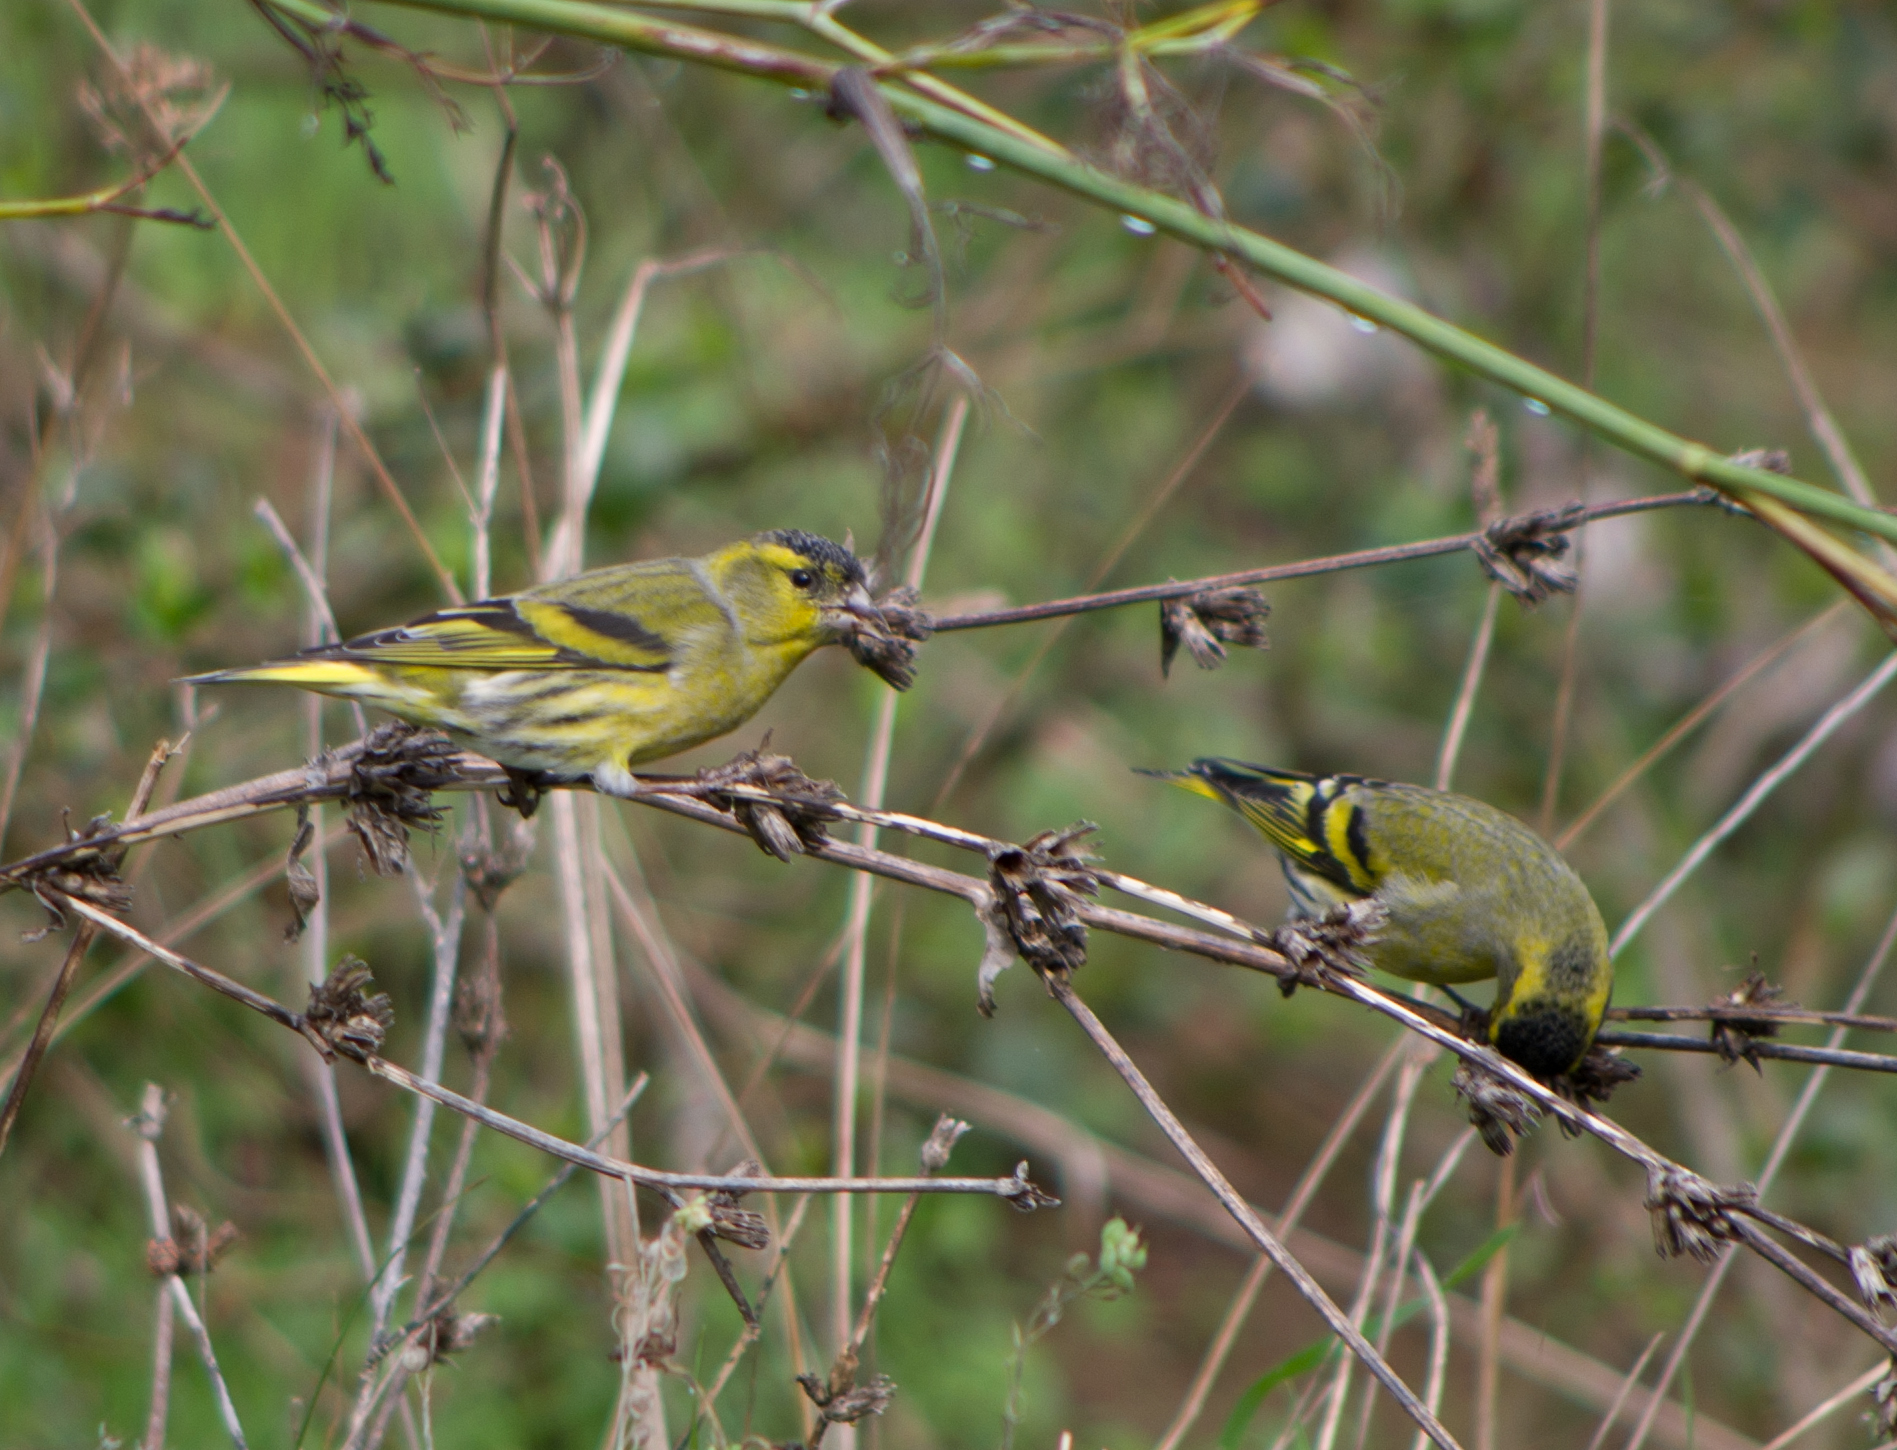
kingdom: Animalia
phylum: Chordata
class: Aves
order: Passeriformes
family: Fringillidae
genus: Spinus
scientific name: Spinus spinus
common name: Eurasian siskin
